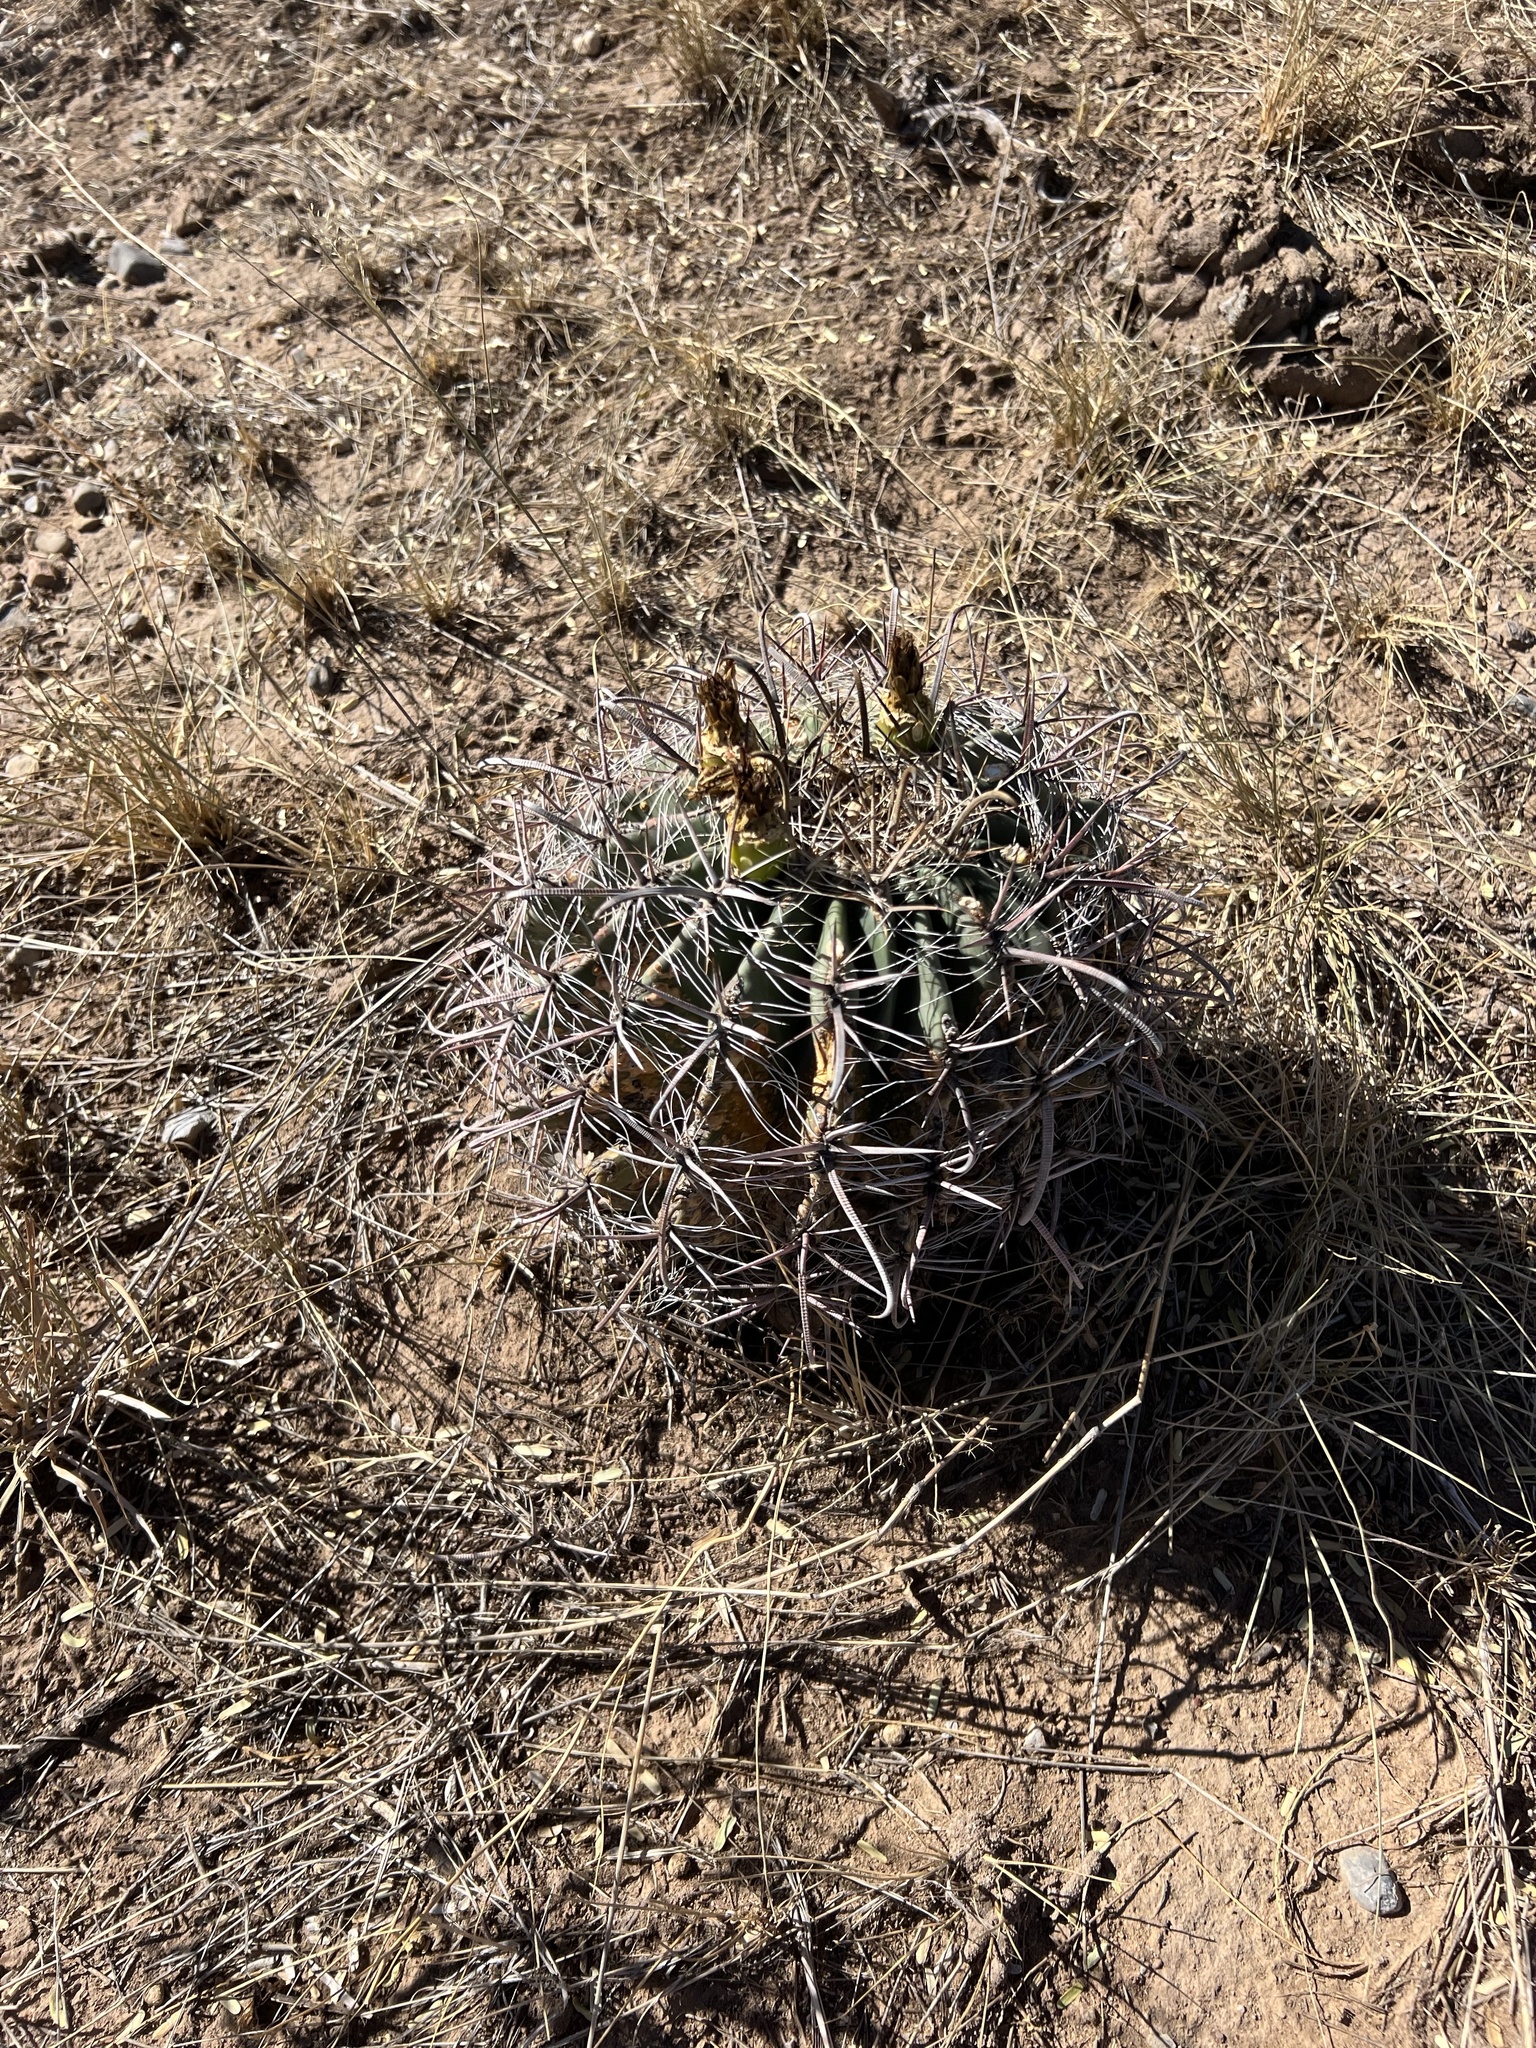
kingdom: Plantae
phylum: Tracheophyta
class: Magnoliopsida
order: Caryophyllales
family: Cactaceae
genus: Ferocactus
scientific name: Ferocactus wislizeni
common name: Candy barrel cactus
